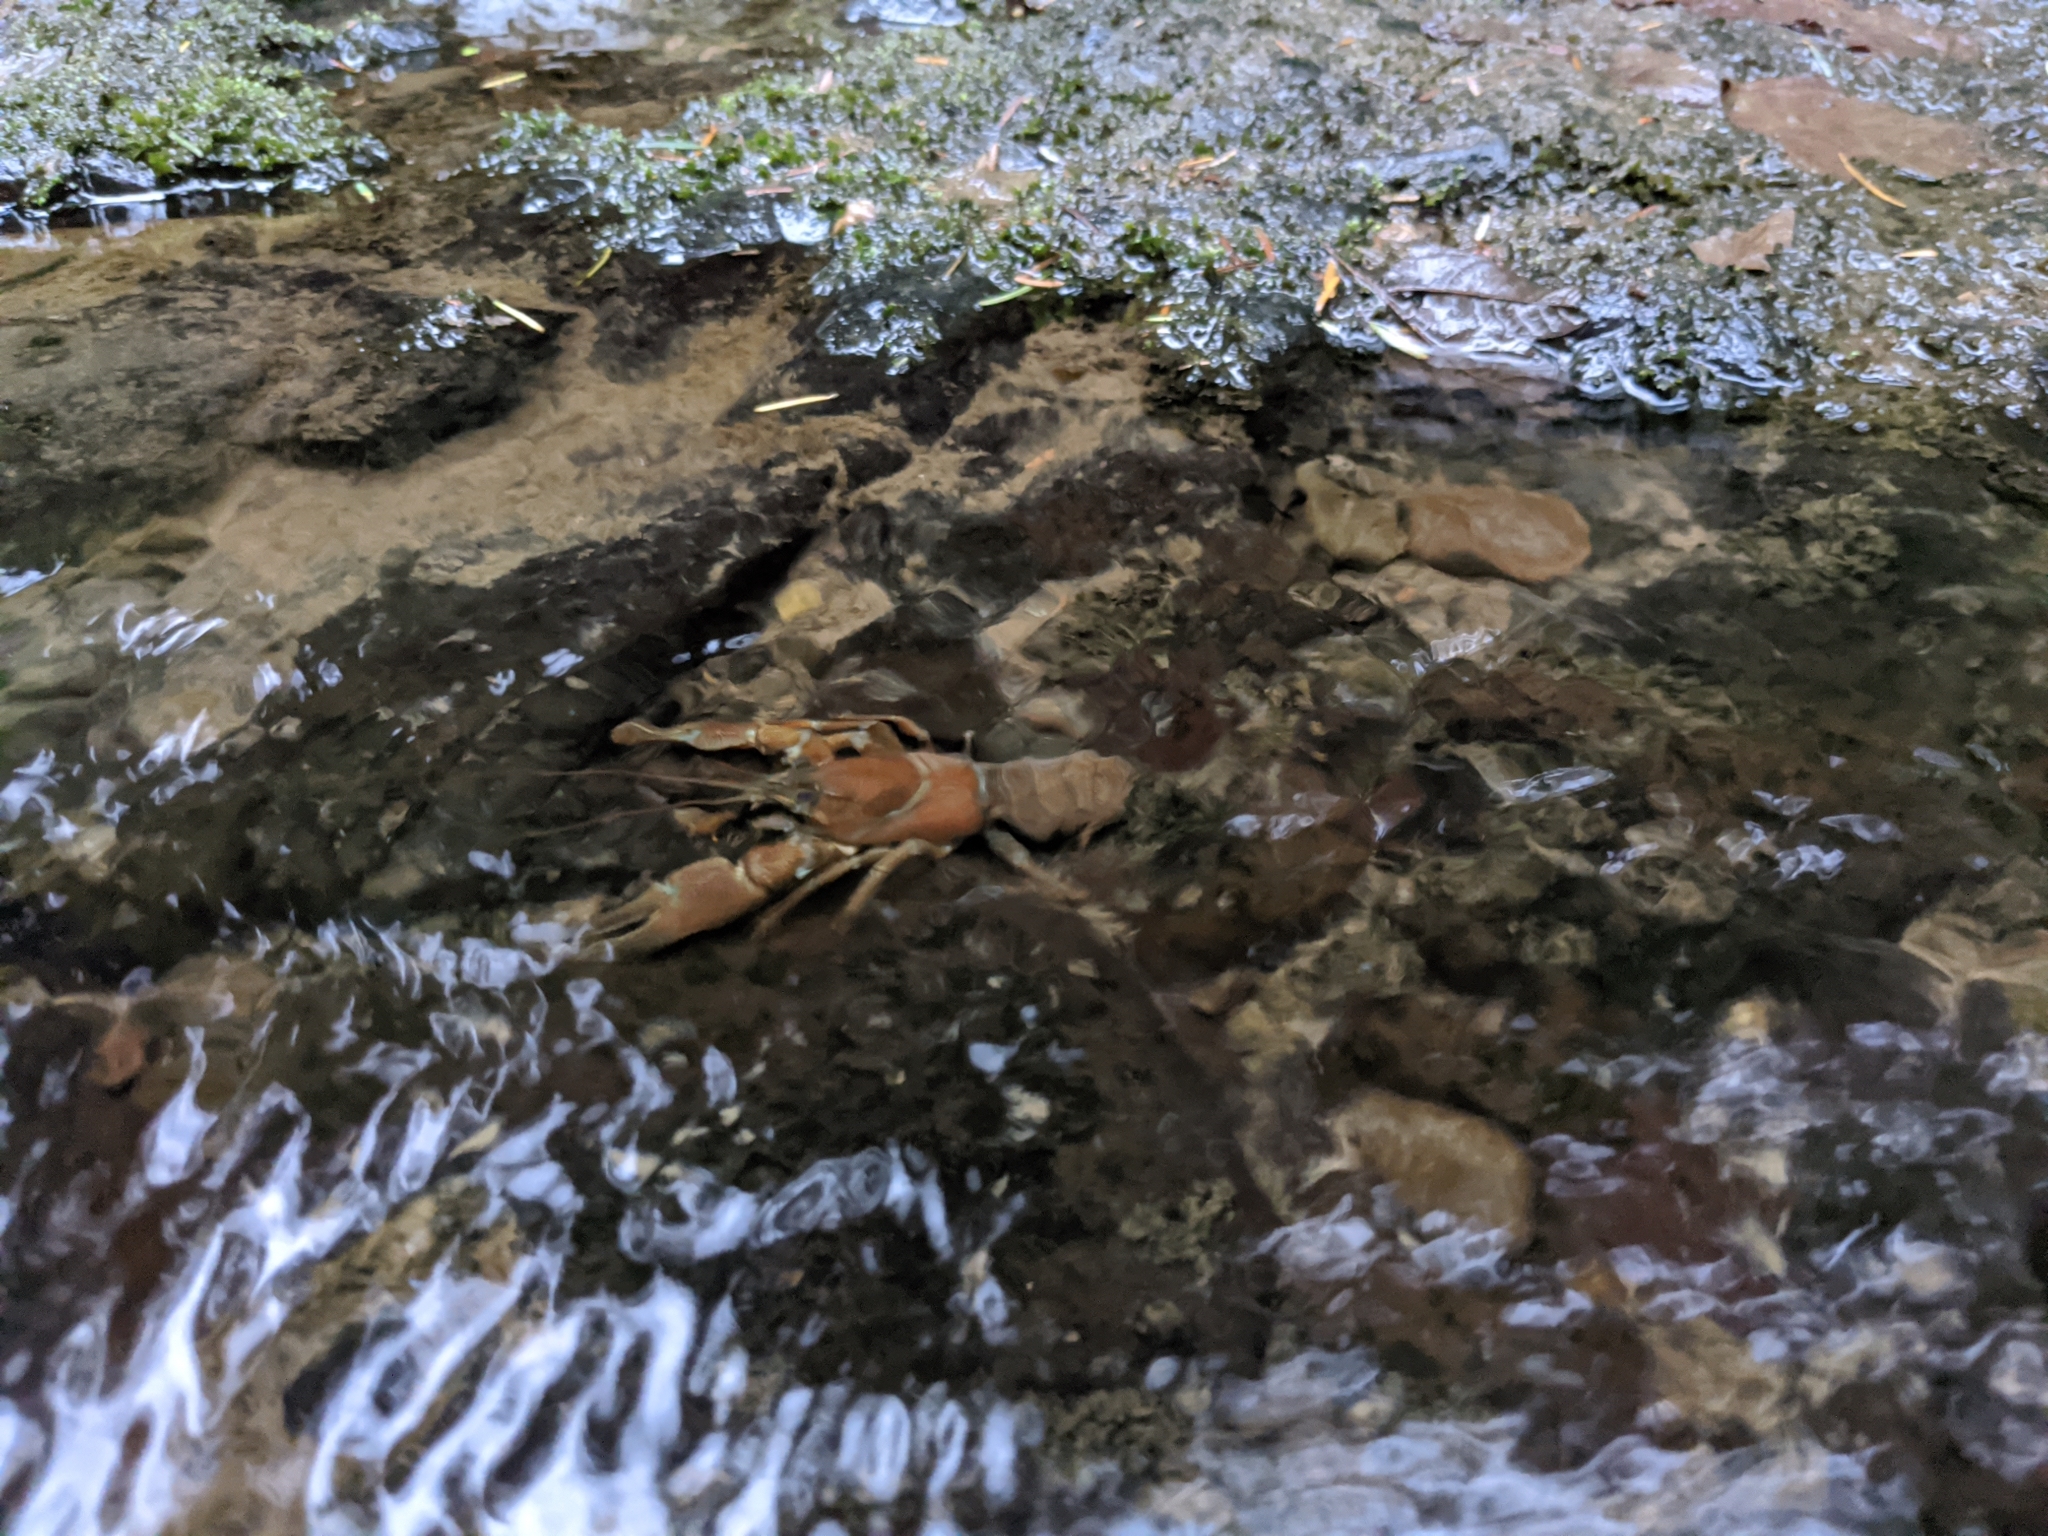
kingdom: Animalia
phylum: Arthropoda
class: Malacostraca
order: Decapoda
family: Astacidae
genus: Pacifastacus
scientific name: Pacifastacus leniusculus
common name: Signal crayfish
